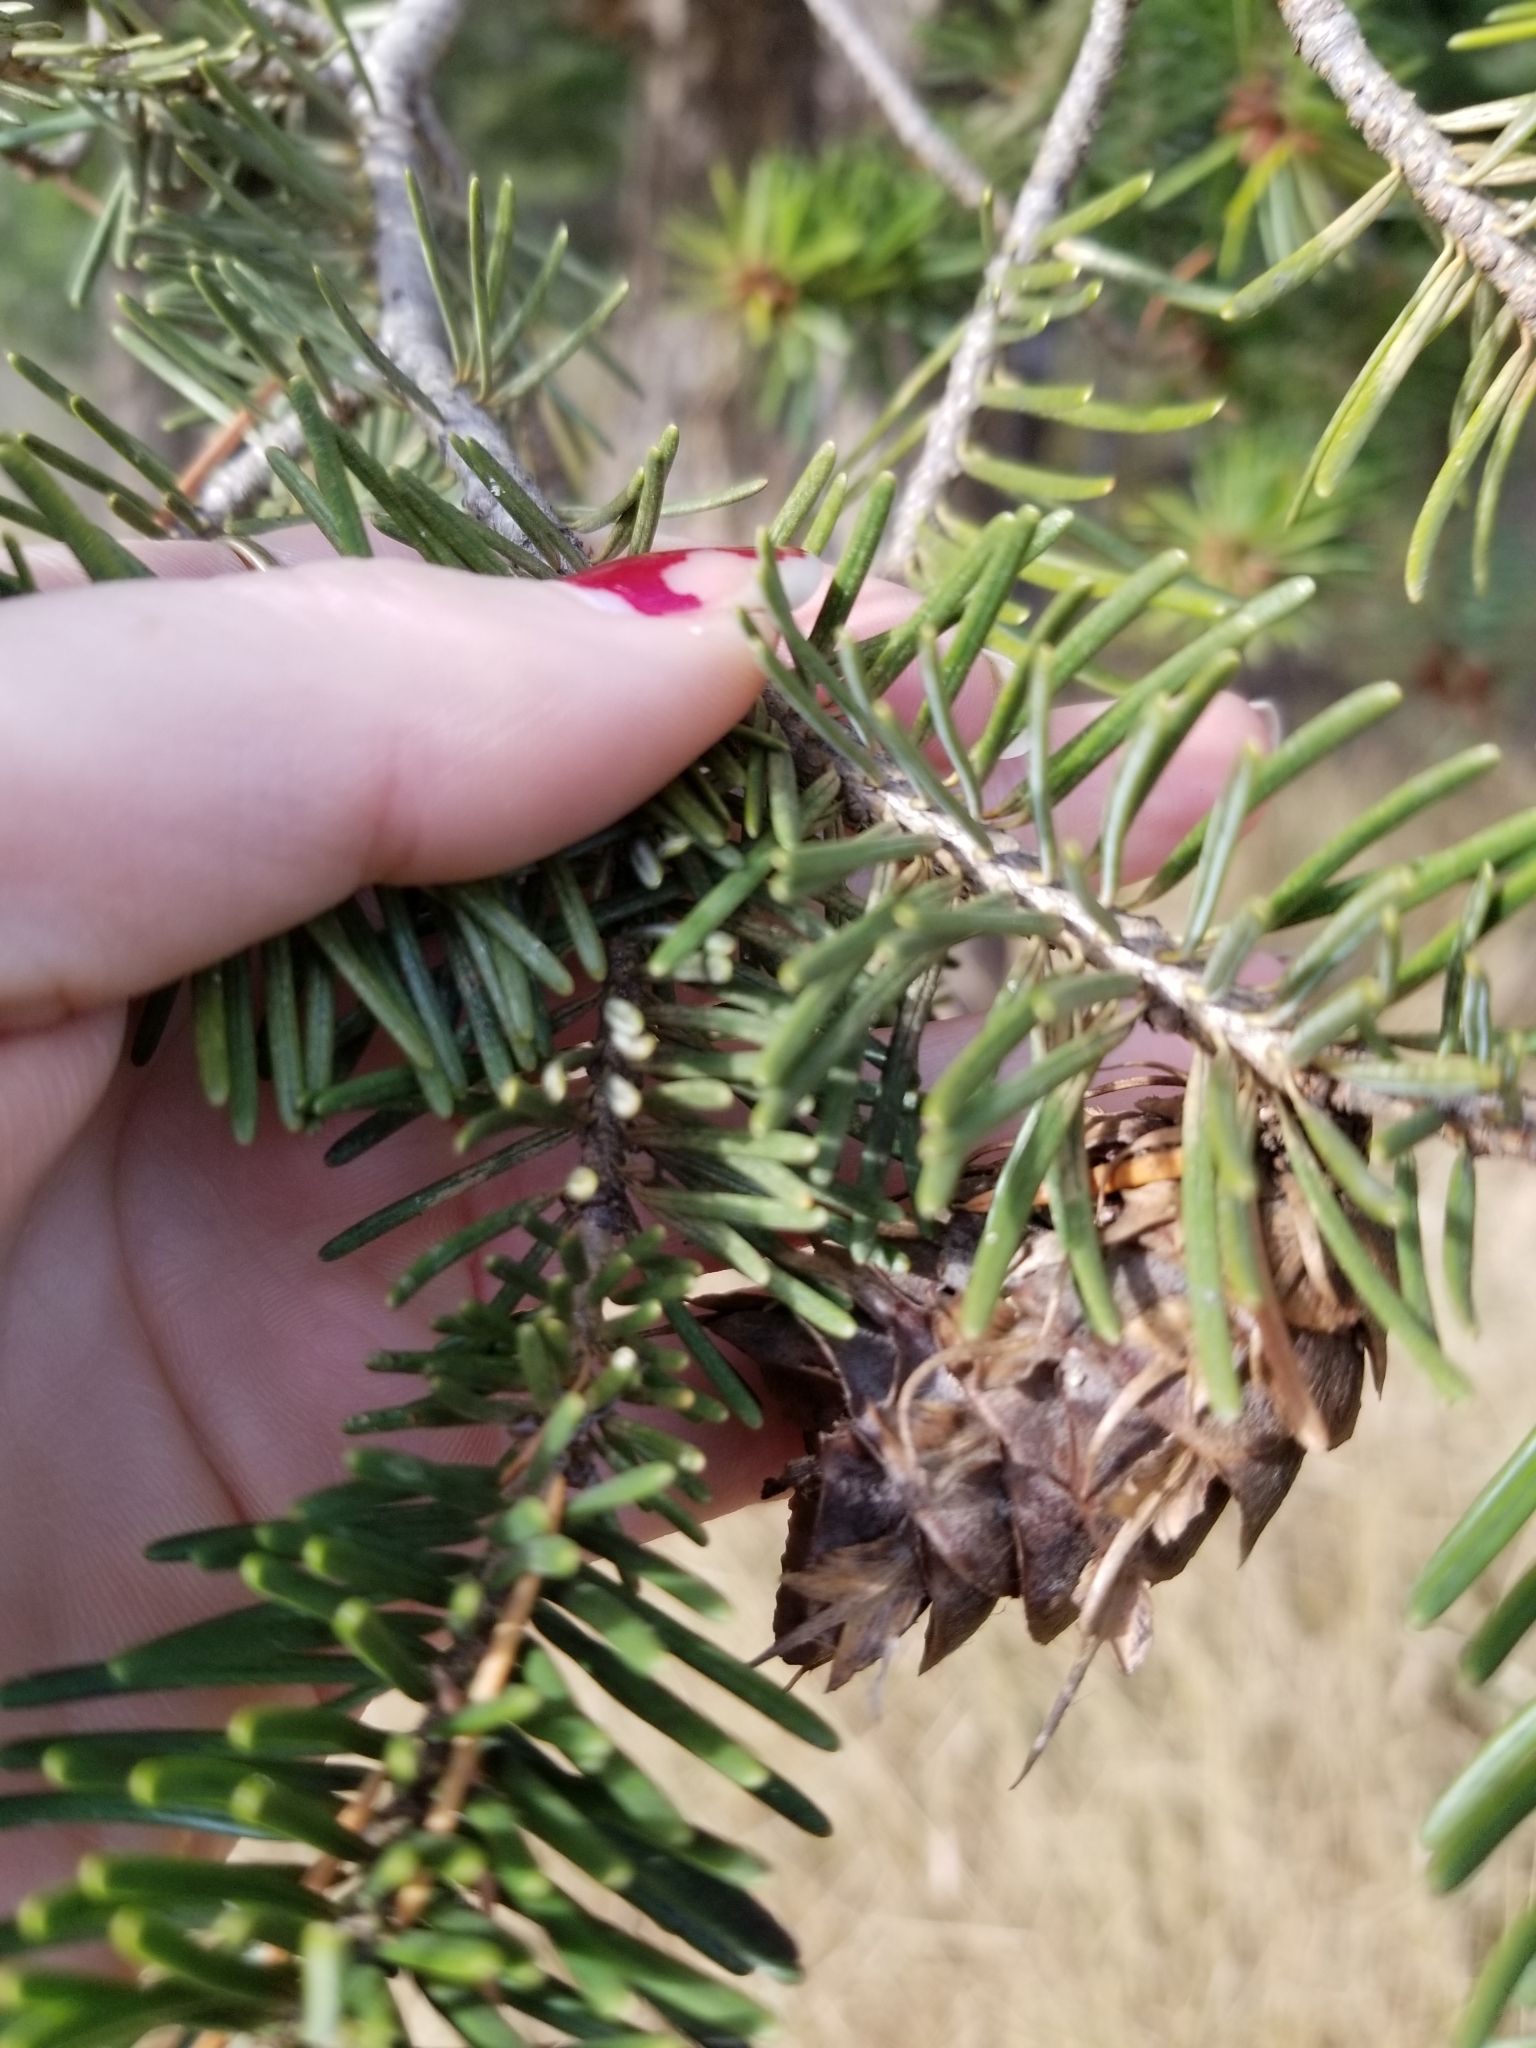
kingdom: Plantae
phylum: Tracheophyta
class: Pinopsida
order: Pinales
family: Pinaceae
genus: Pseudotsuga
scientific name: Pseudotsuga menziesii
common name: Douglas fir
